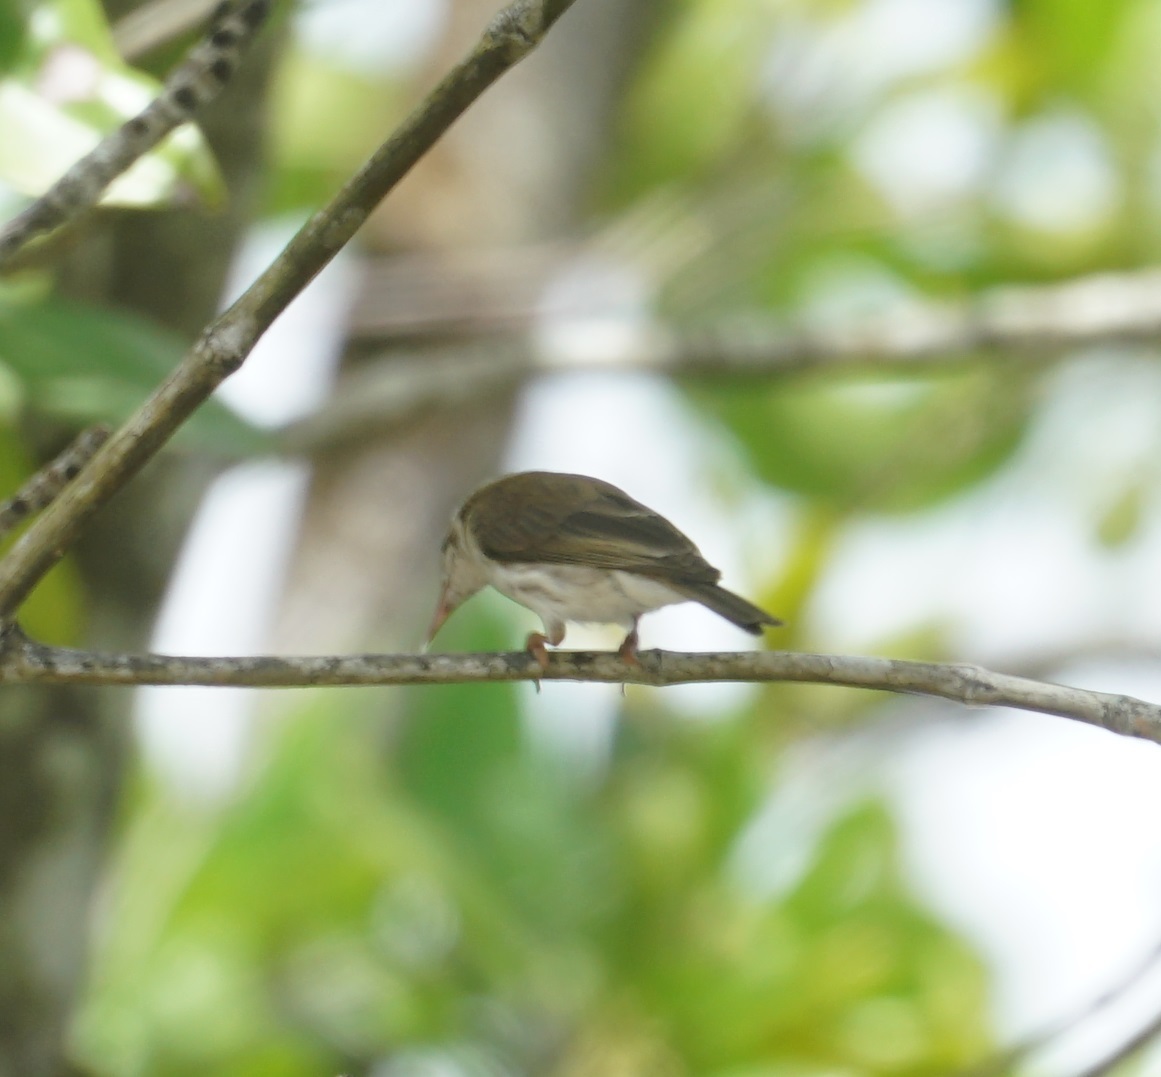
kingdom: Animalia
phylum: Chordata
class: Aves
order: Passeriformes
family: Meliphagidae
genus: Ramsayornis
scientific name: Ramsayornis modestus
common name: Brown-backed honeyeater
